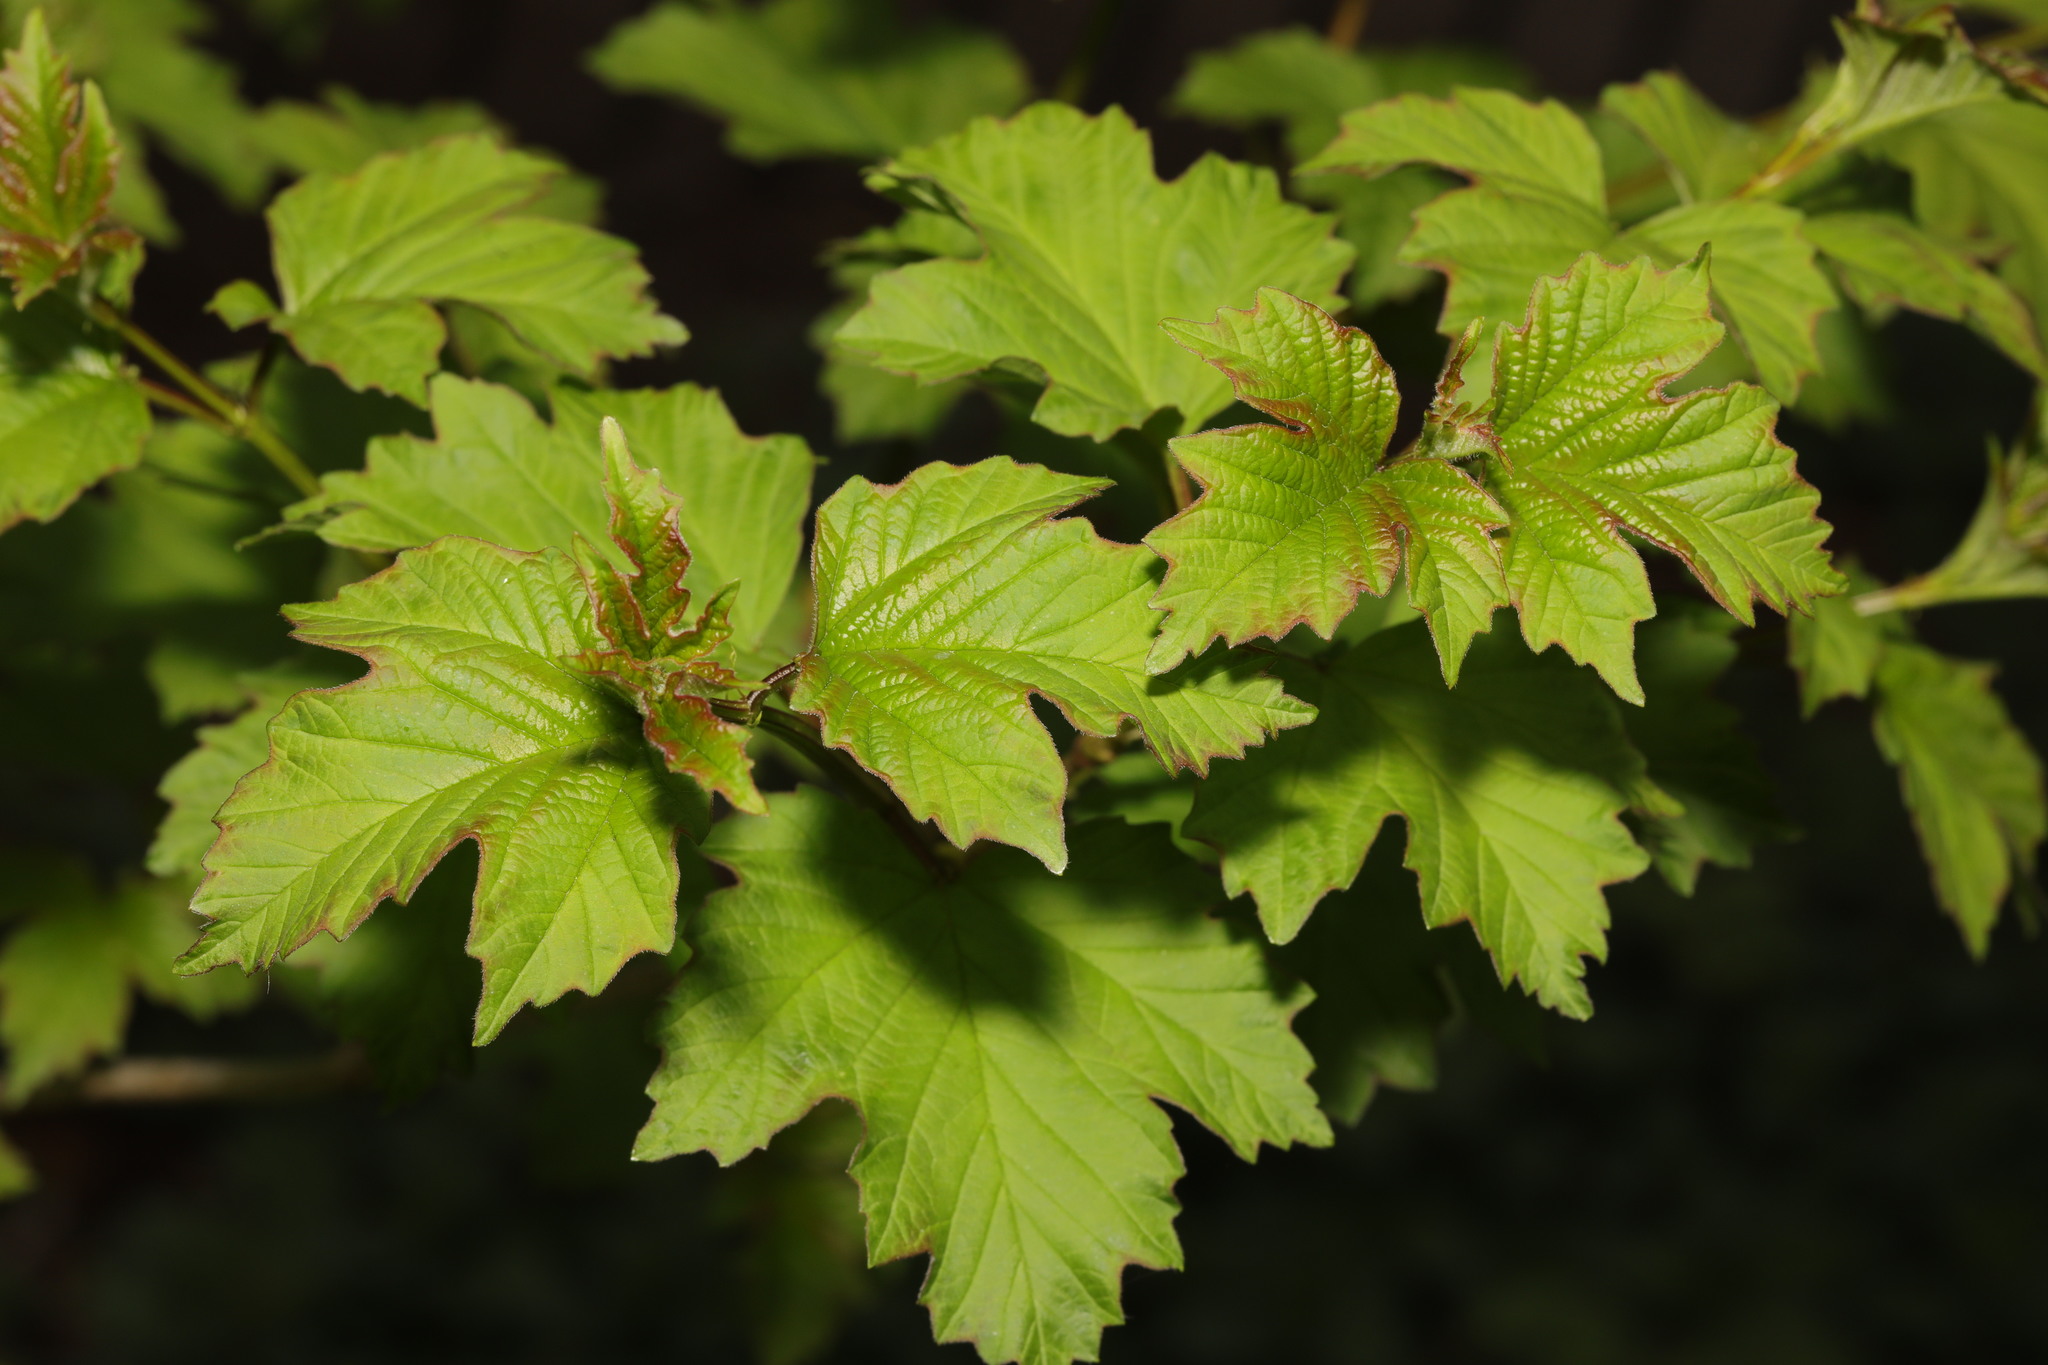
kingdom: Plantae
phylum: Tracheophyta
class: Magnoliopsida
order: Dipsacales
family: Viburnaceae
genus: Viburnum
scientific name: Viburnum opulus
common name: Guelder-rose
